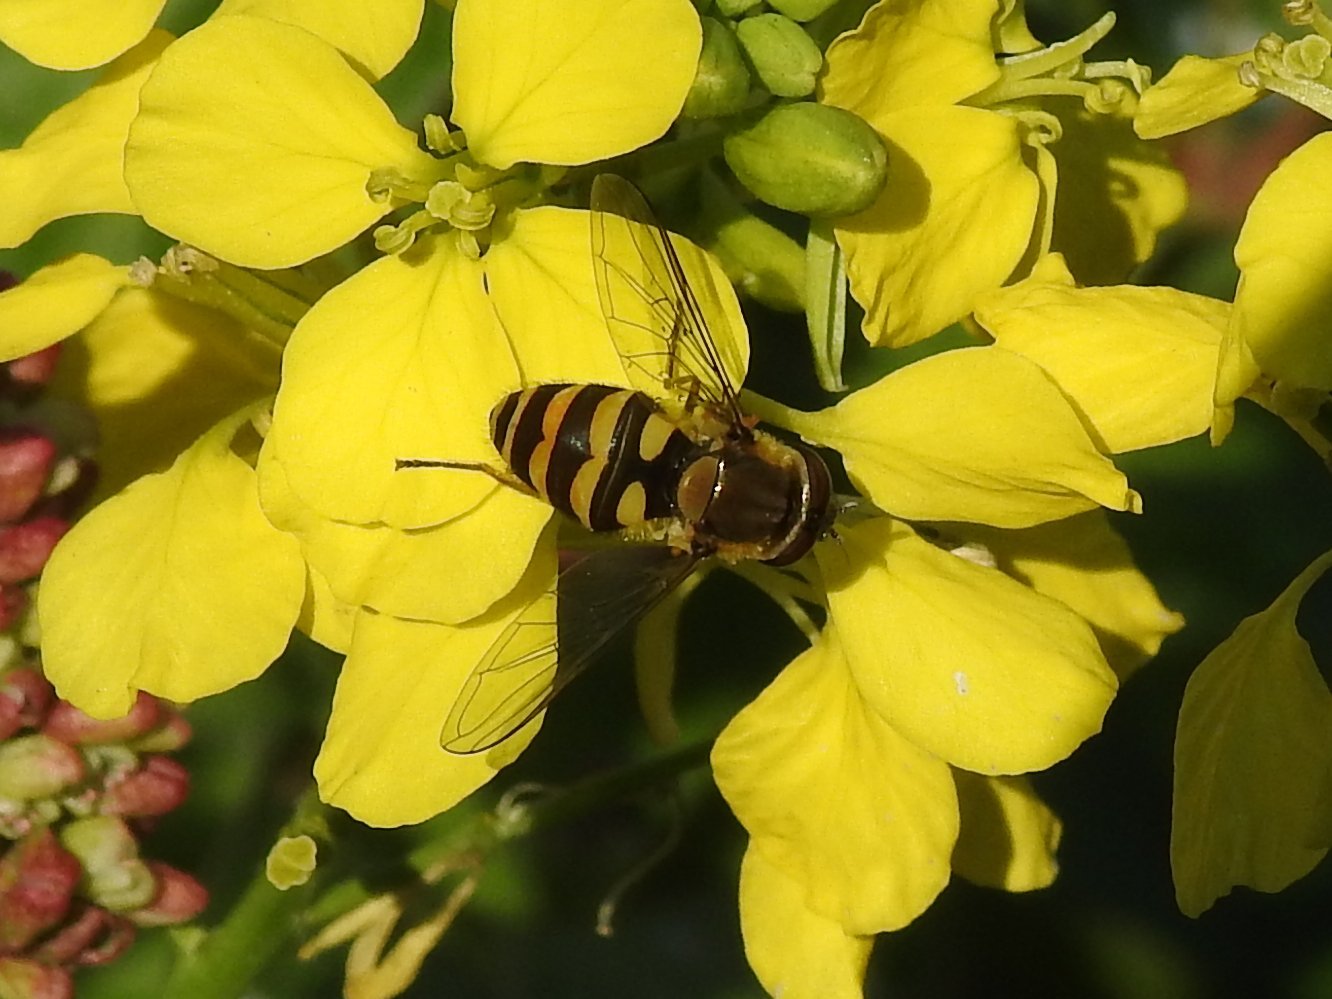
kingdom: Animalia
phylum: Arthropoda
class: Insecta
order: Diptera
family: Syrphidae
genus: Syrphus
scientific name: Syrphus
